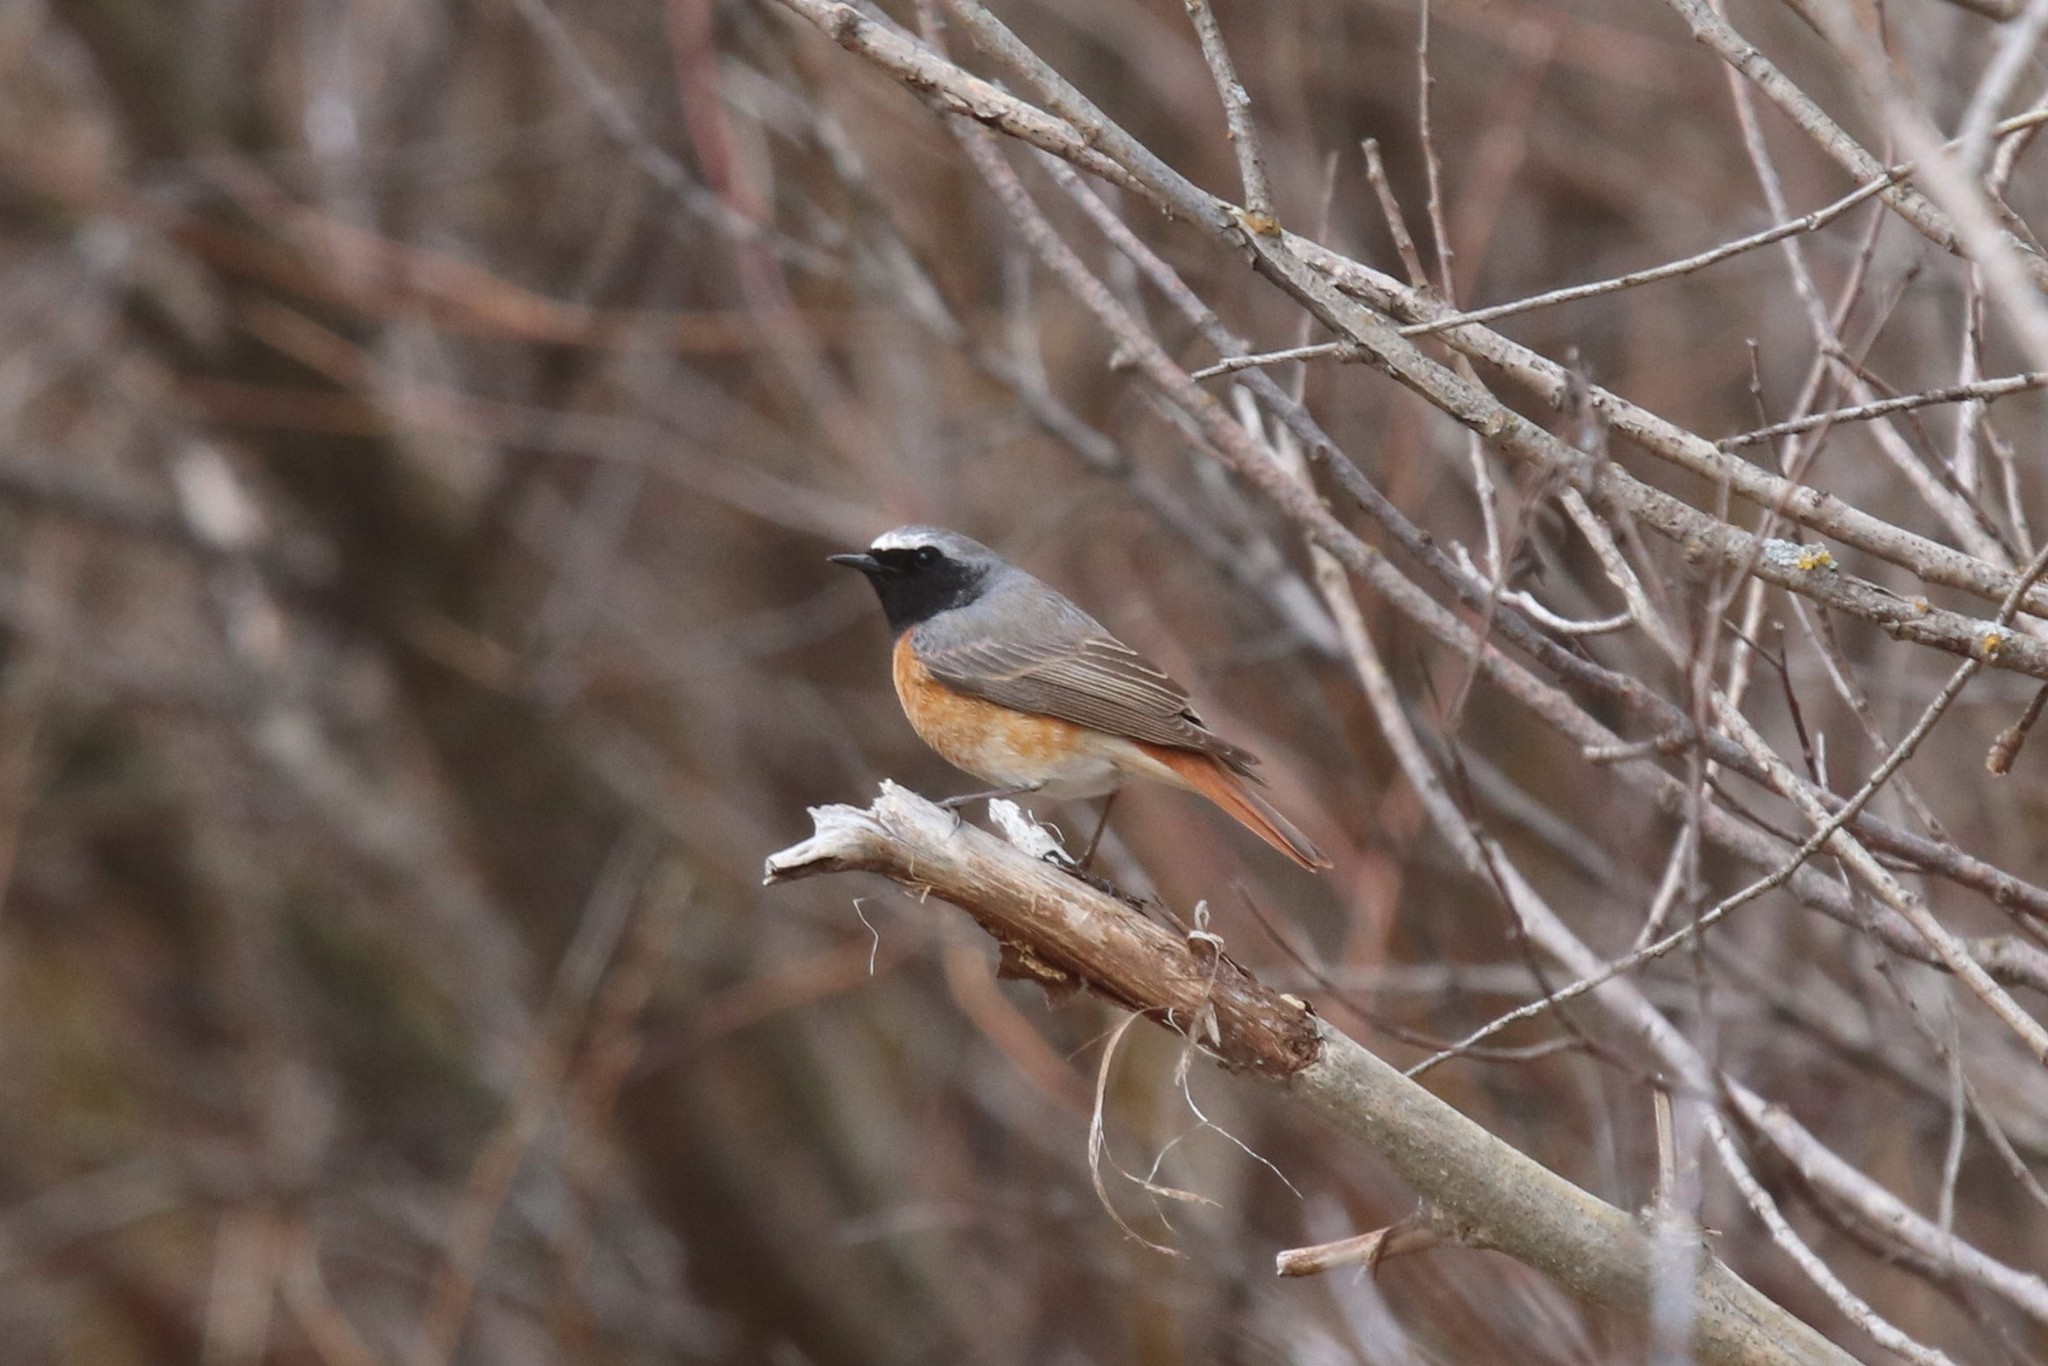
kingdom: Animalia
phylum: Chordata
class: Aves
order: Passeriformes
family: Muscicapidae
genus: Phoenicurus
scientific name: Phoenicurus phoenicurus
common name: Common redstart
